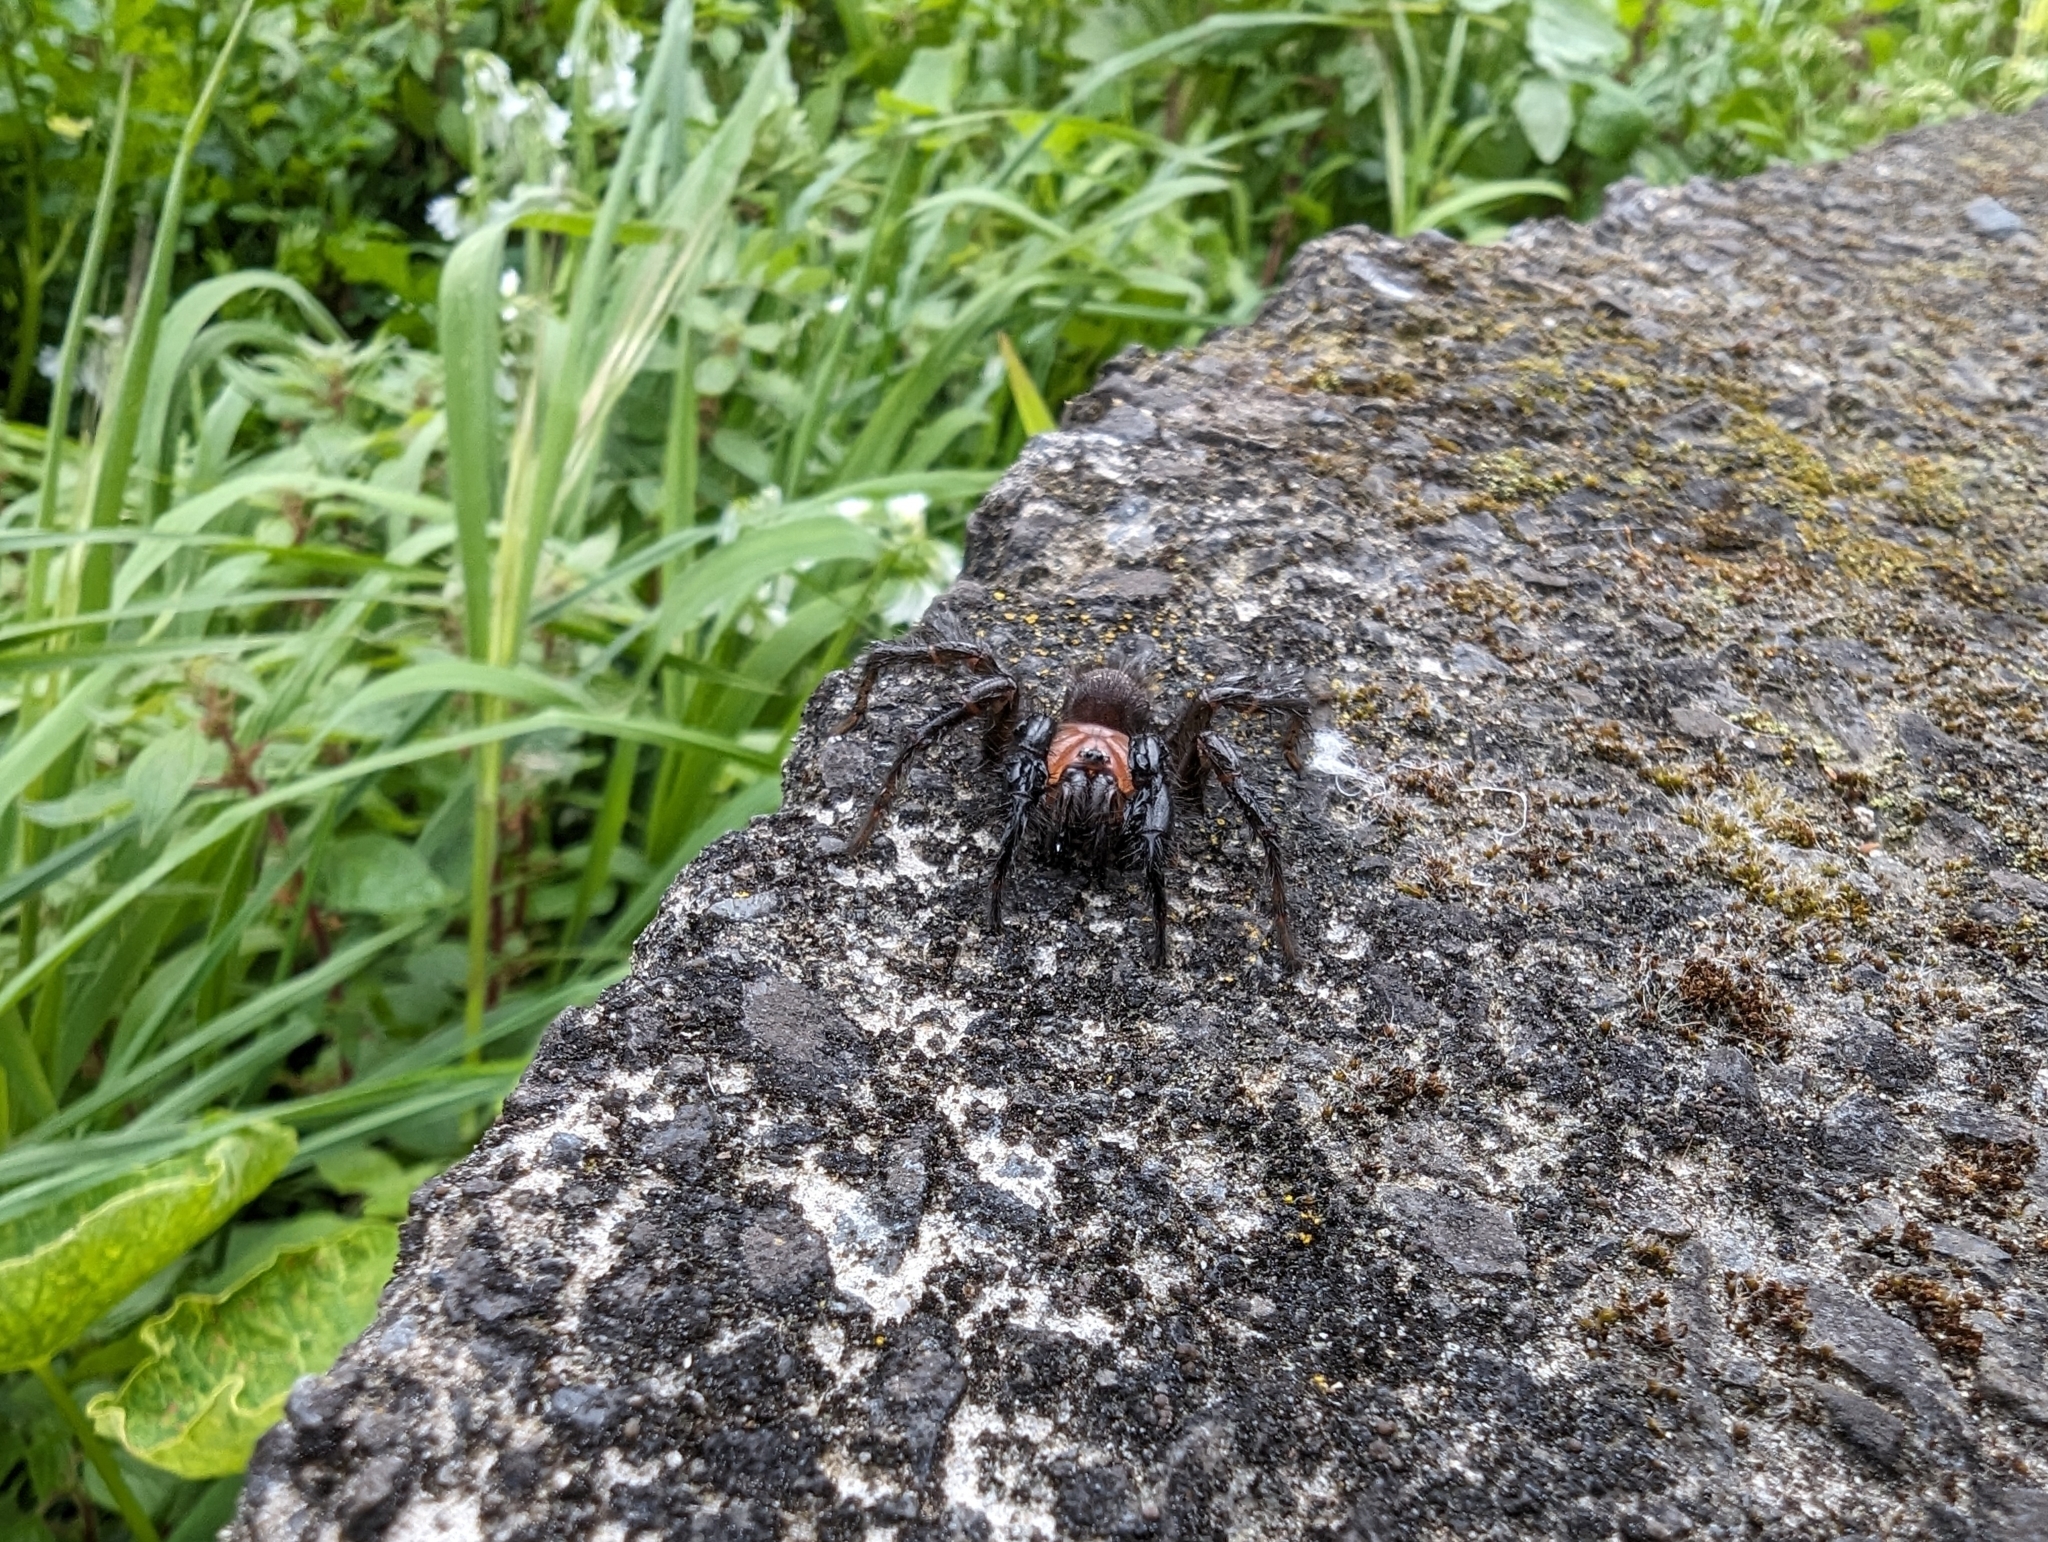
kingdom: Animalia
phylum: Arthropoda
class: Arachnida
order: Araneae
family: Porrhothelidae
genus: Porrhothele
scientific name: Porrhothele antipodiana
